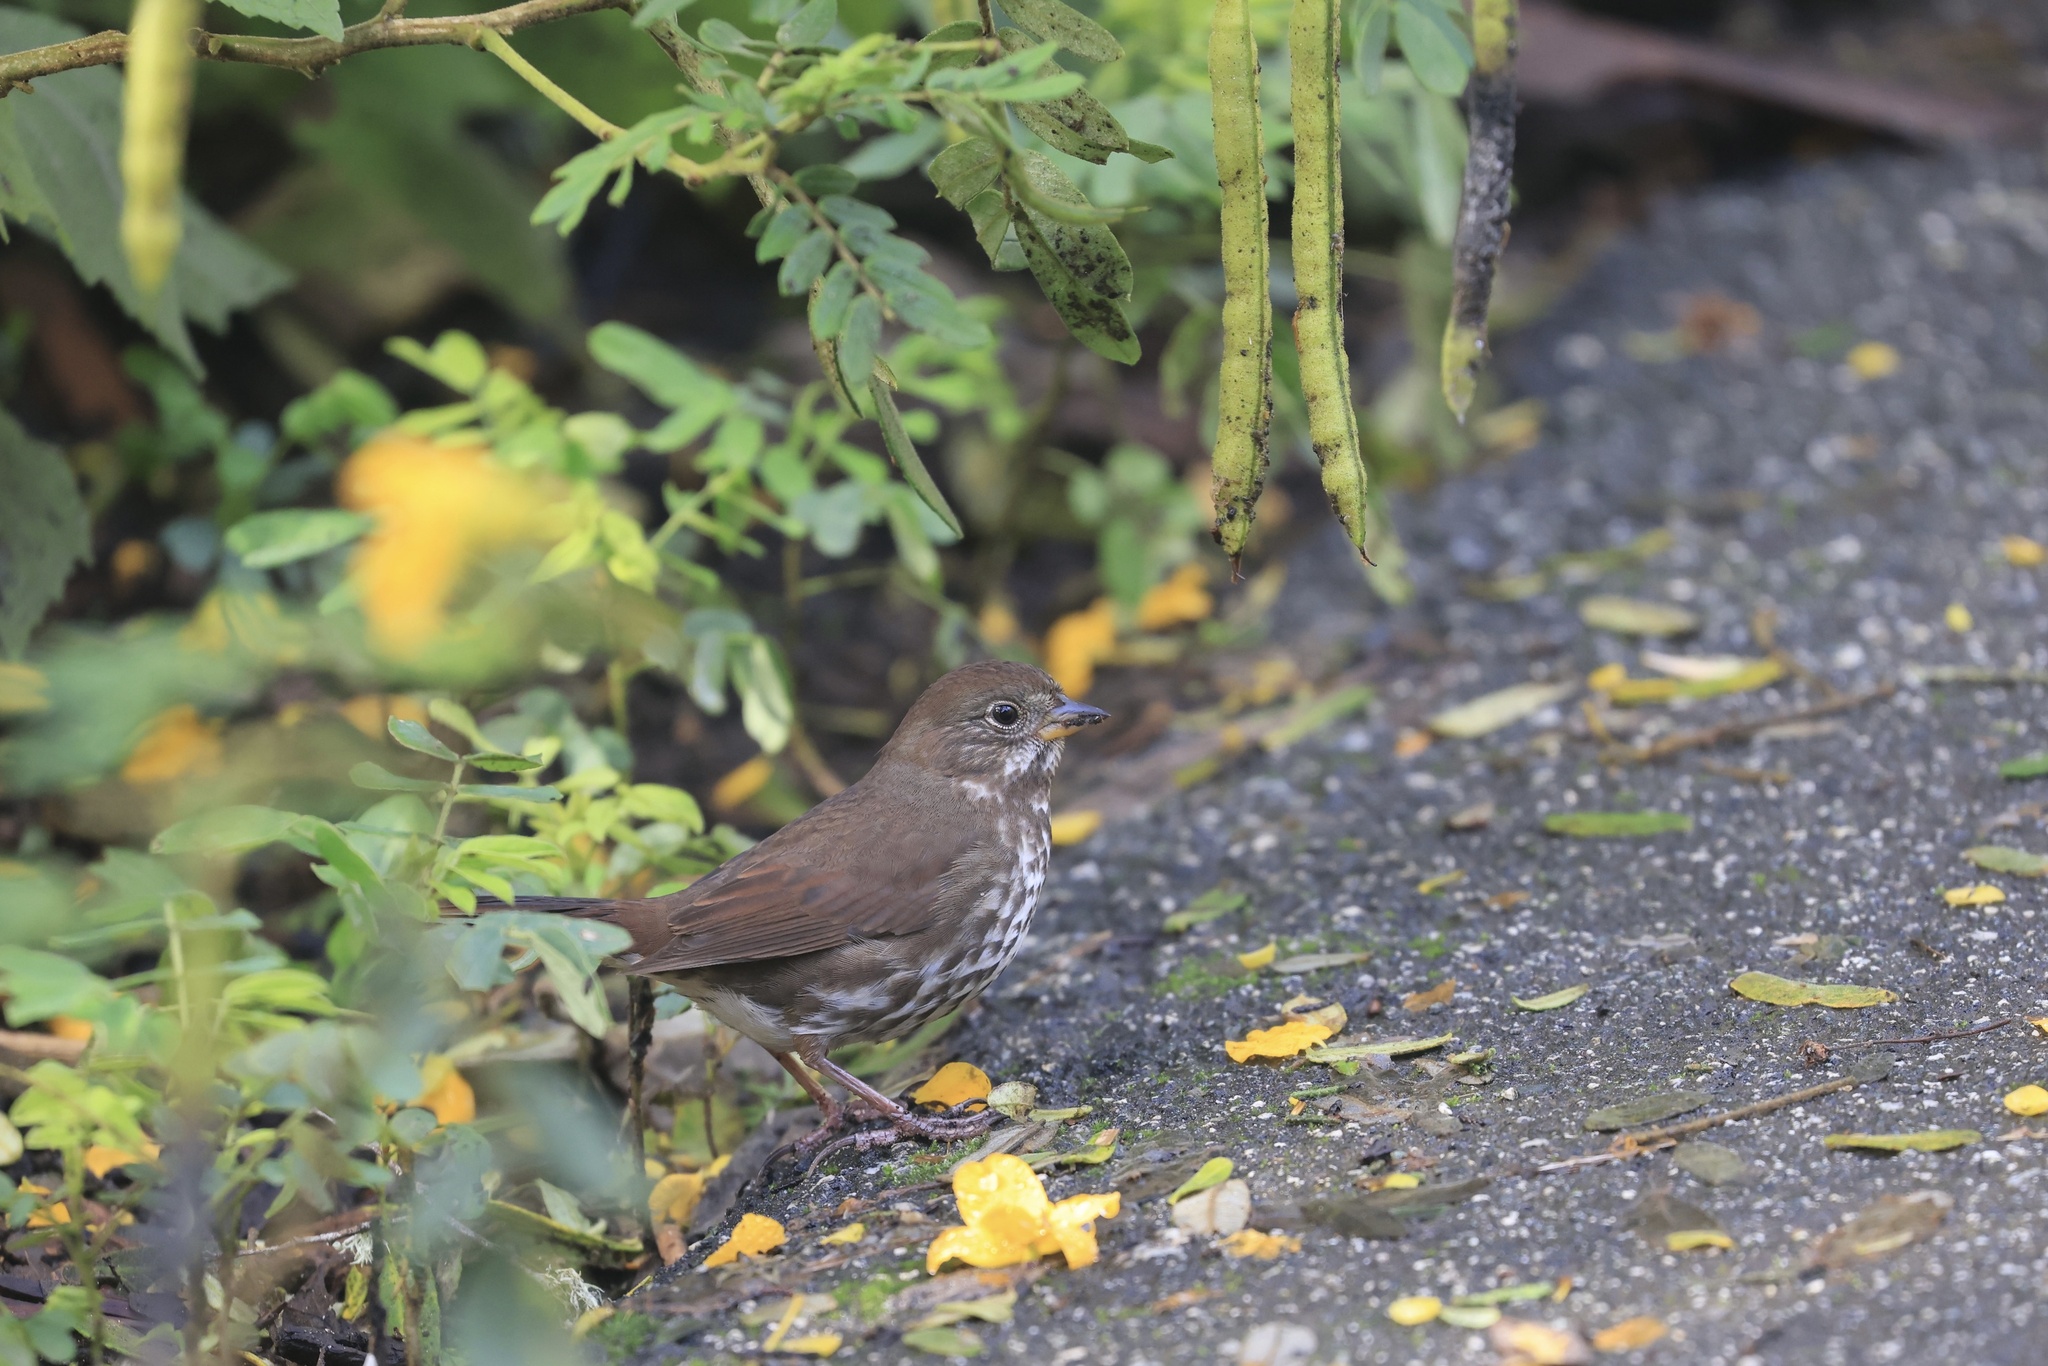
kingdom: Animalia
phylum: Chordata
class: Aves
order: Passeriformes
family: Passerellidae
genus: Passerella
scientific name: Passerella iliaca
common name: Fox sparrow
